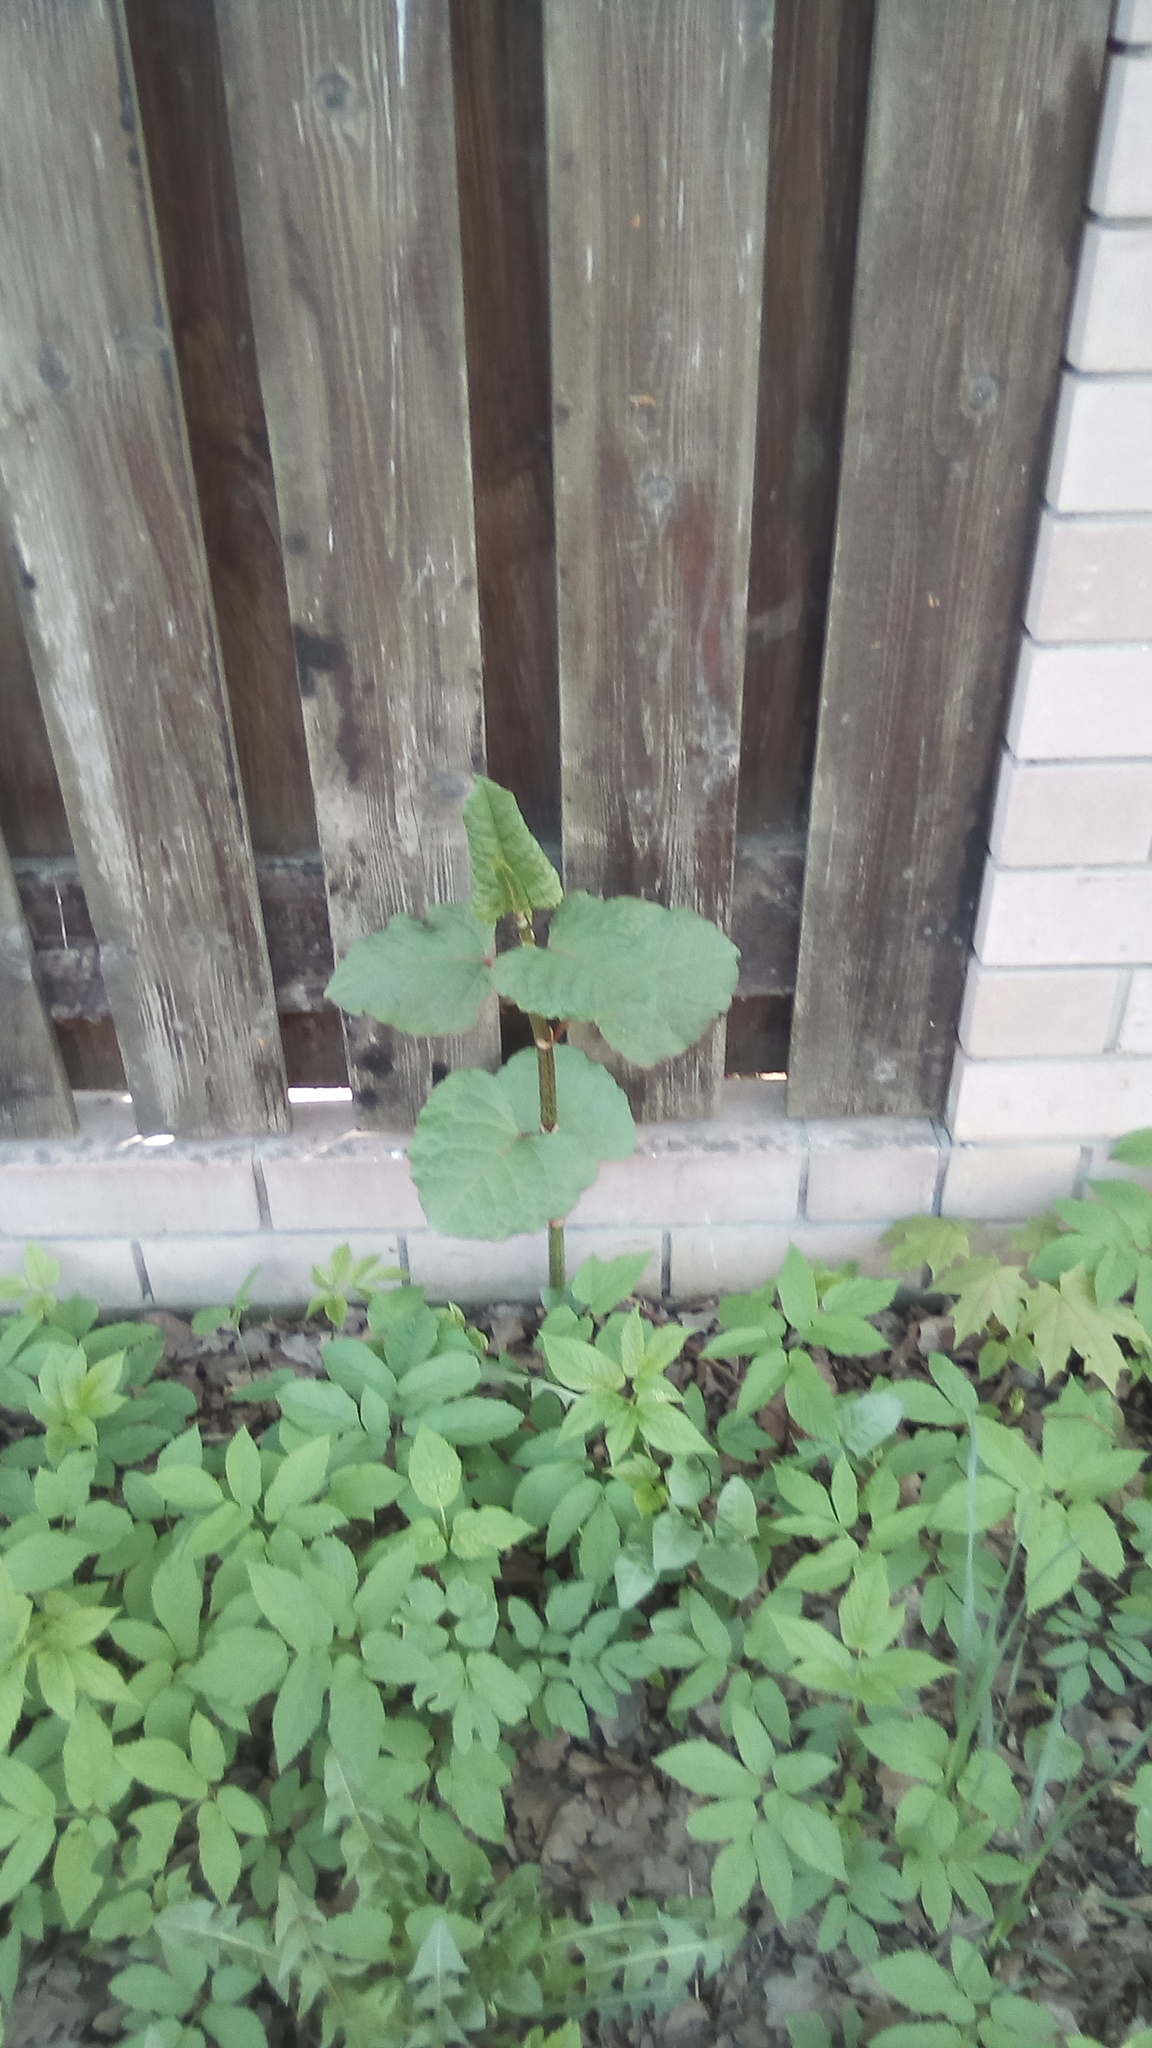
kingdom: Plantae
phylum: Tracheophyta
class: Magnoliopsida
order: Caryophyllales
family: Polygonaceae
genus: Reynoutria
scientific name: Reynoutria bohemica
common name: Bohemian knotweed
